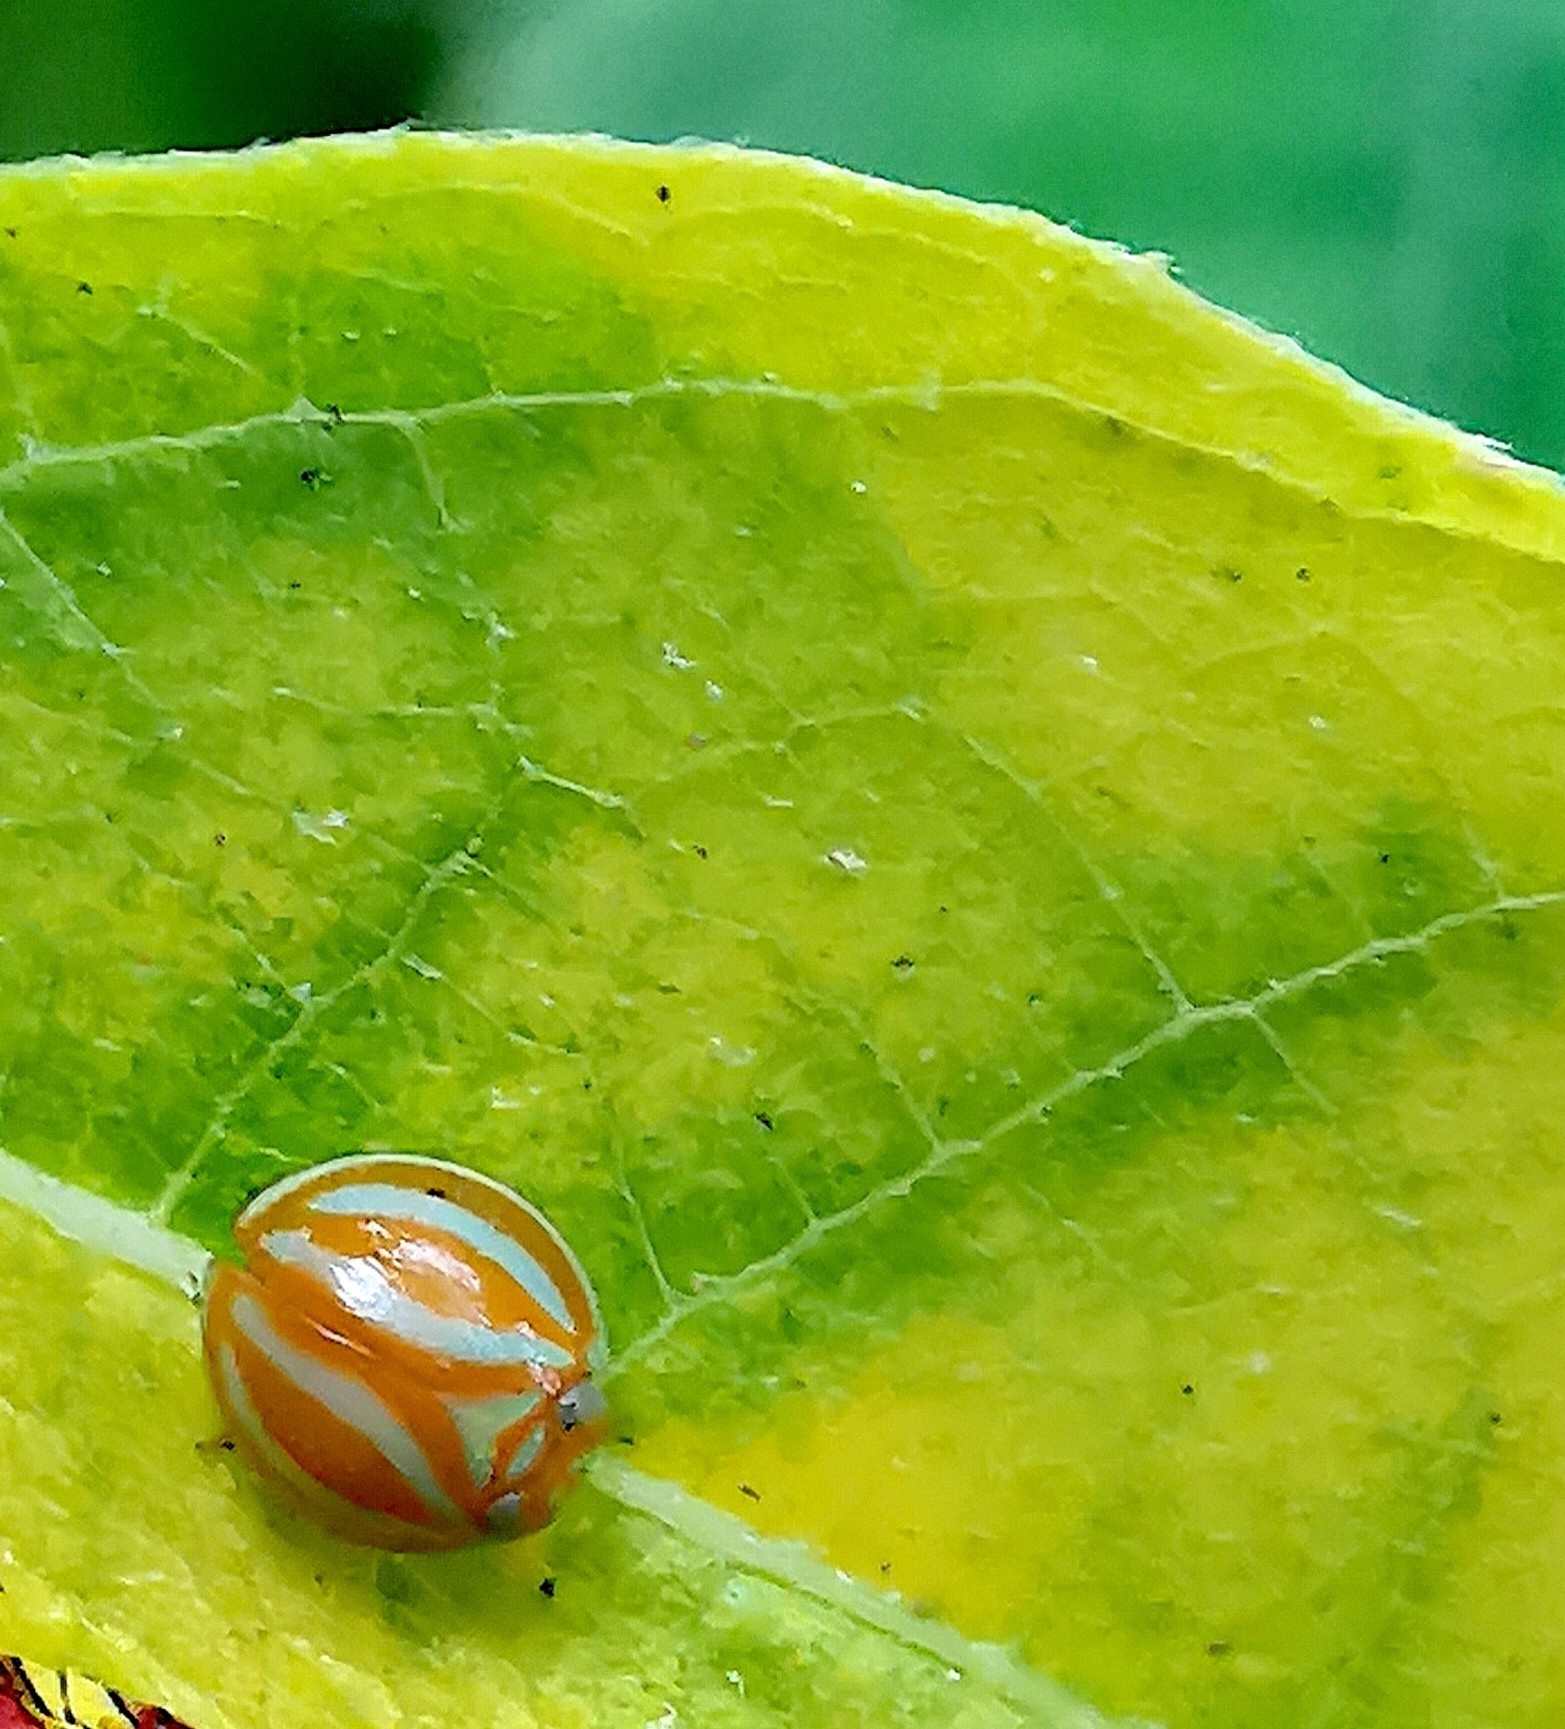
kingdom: Animalia
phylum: Arthropoda
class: Insecta
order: Hemiptera
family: Issidae
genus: Hemisphaerius
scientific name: Hemisphaerius coccinelloides
